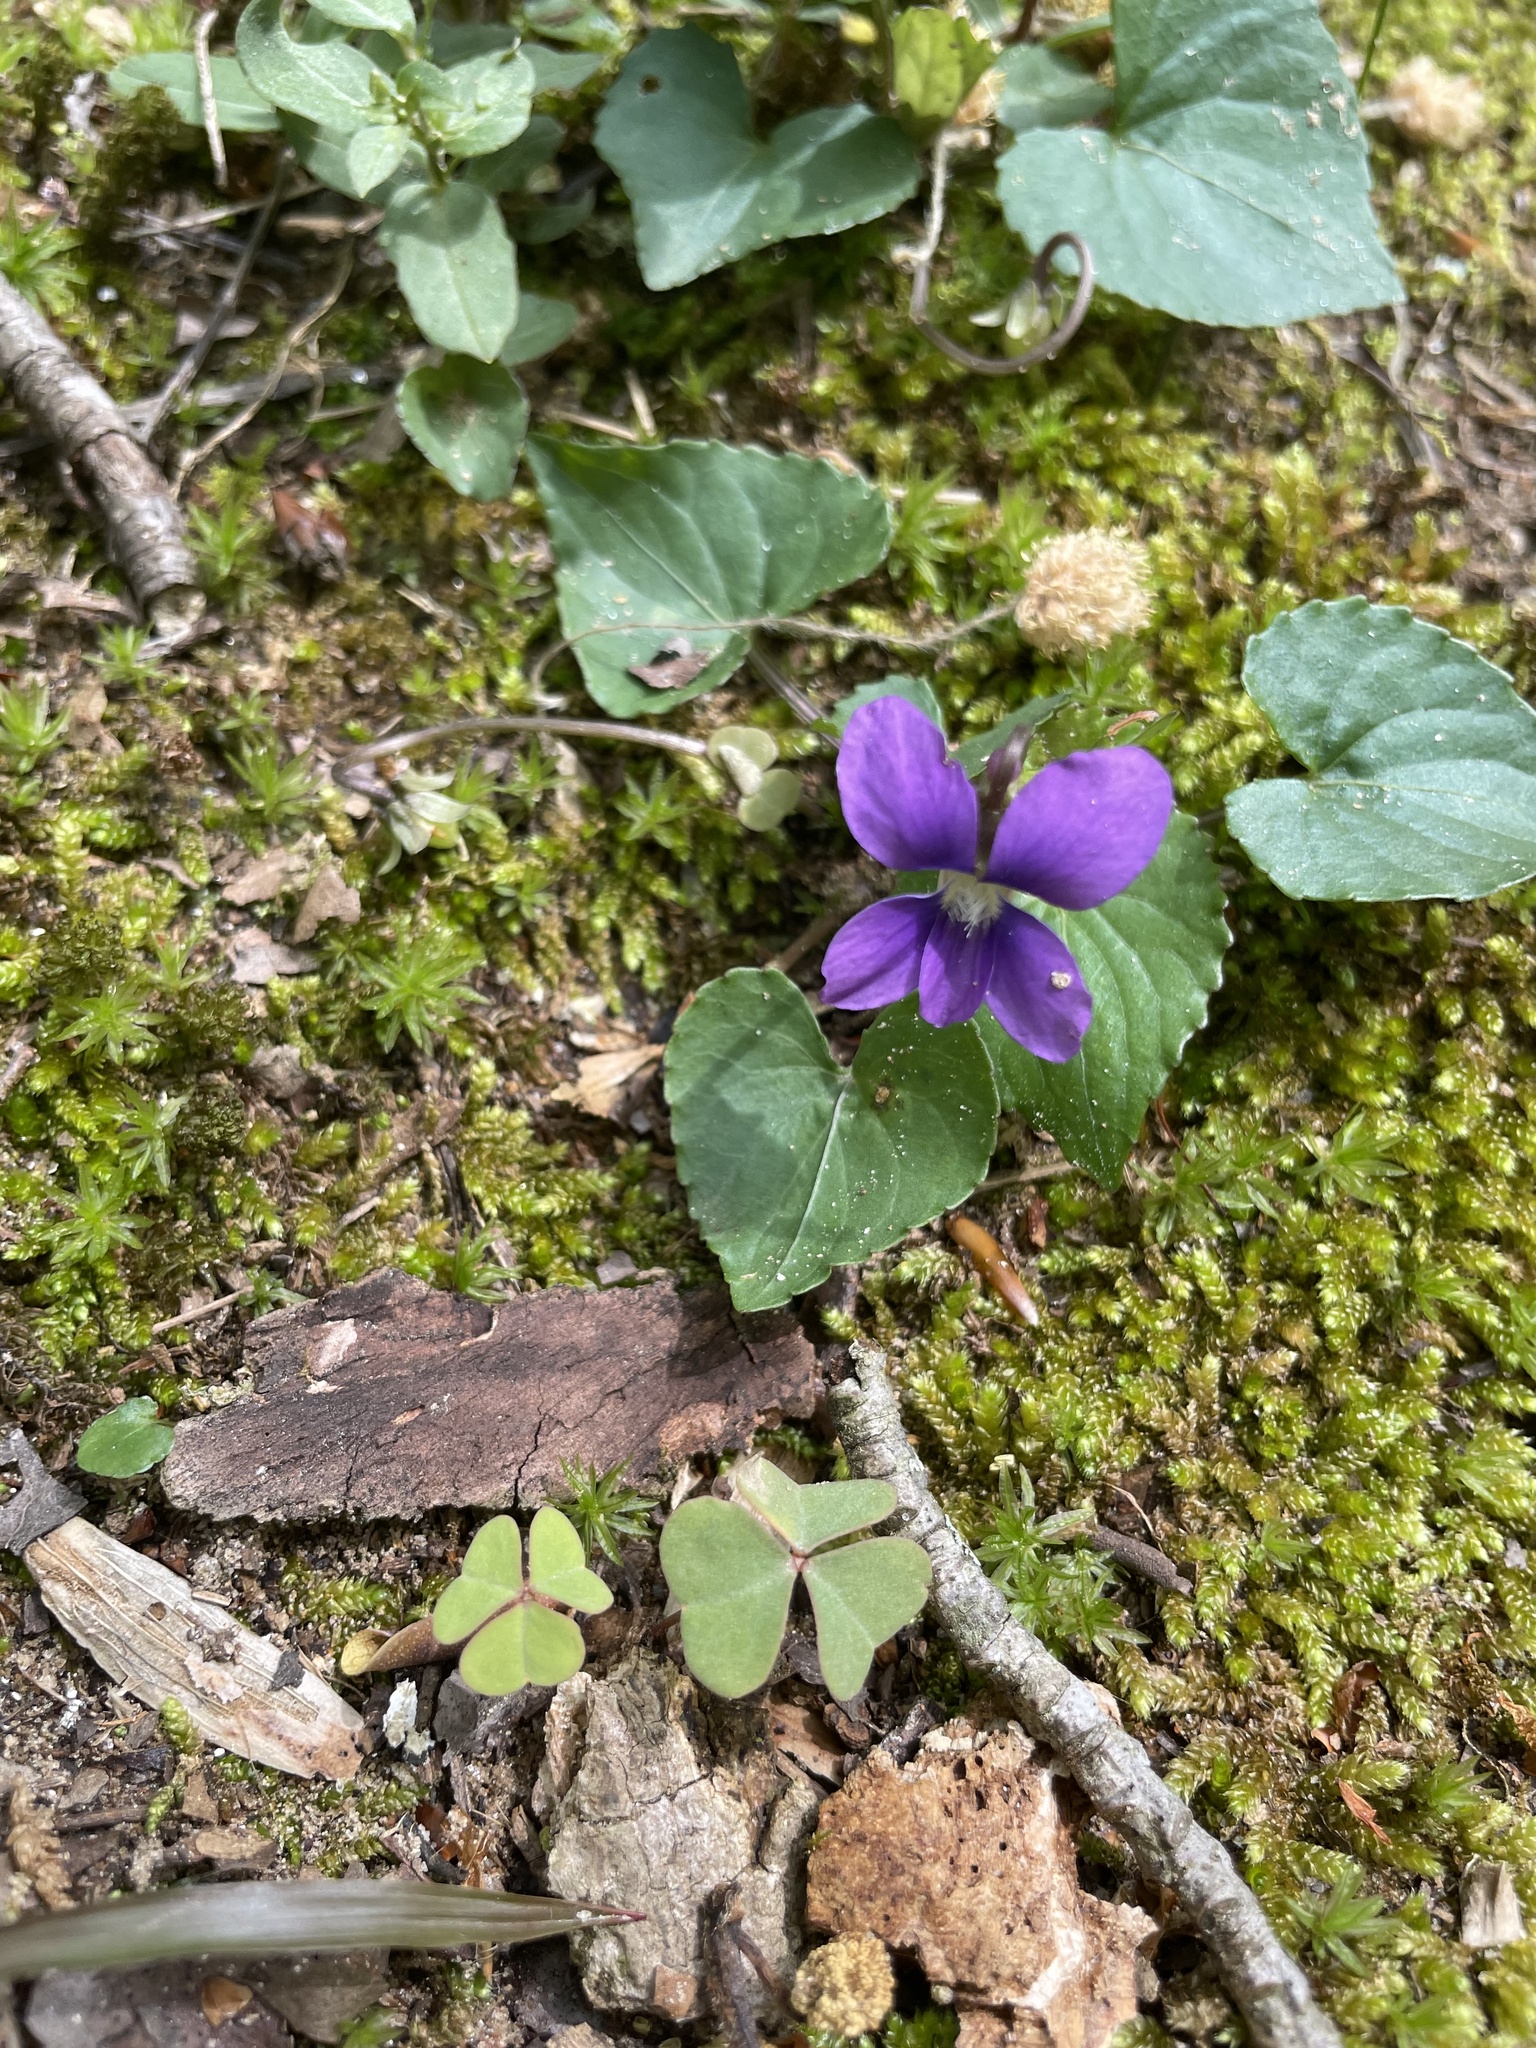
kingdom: Plantae
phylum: Tracheophyta
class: Magnoliopsida
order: Malpighiales
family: Violaceae
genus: Viola
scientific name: Viola sororia
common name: Dooryard violet
